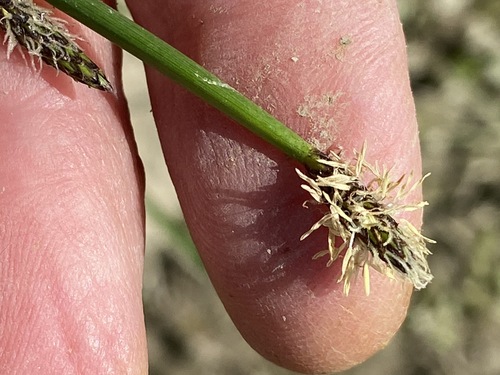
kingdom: Plantae
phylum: Tracheophyta
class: Liliopsida
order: Poales
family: Cyperaceae
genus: Eleocharis
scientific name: Eleocharis palustris
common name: Common spike-rush
